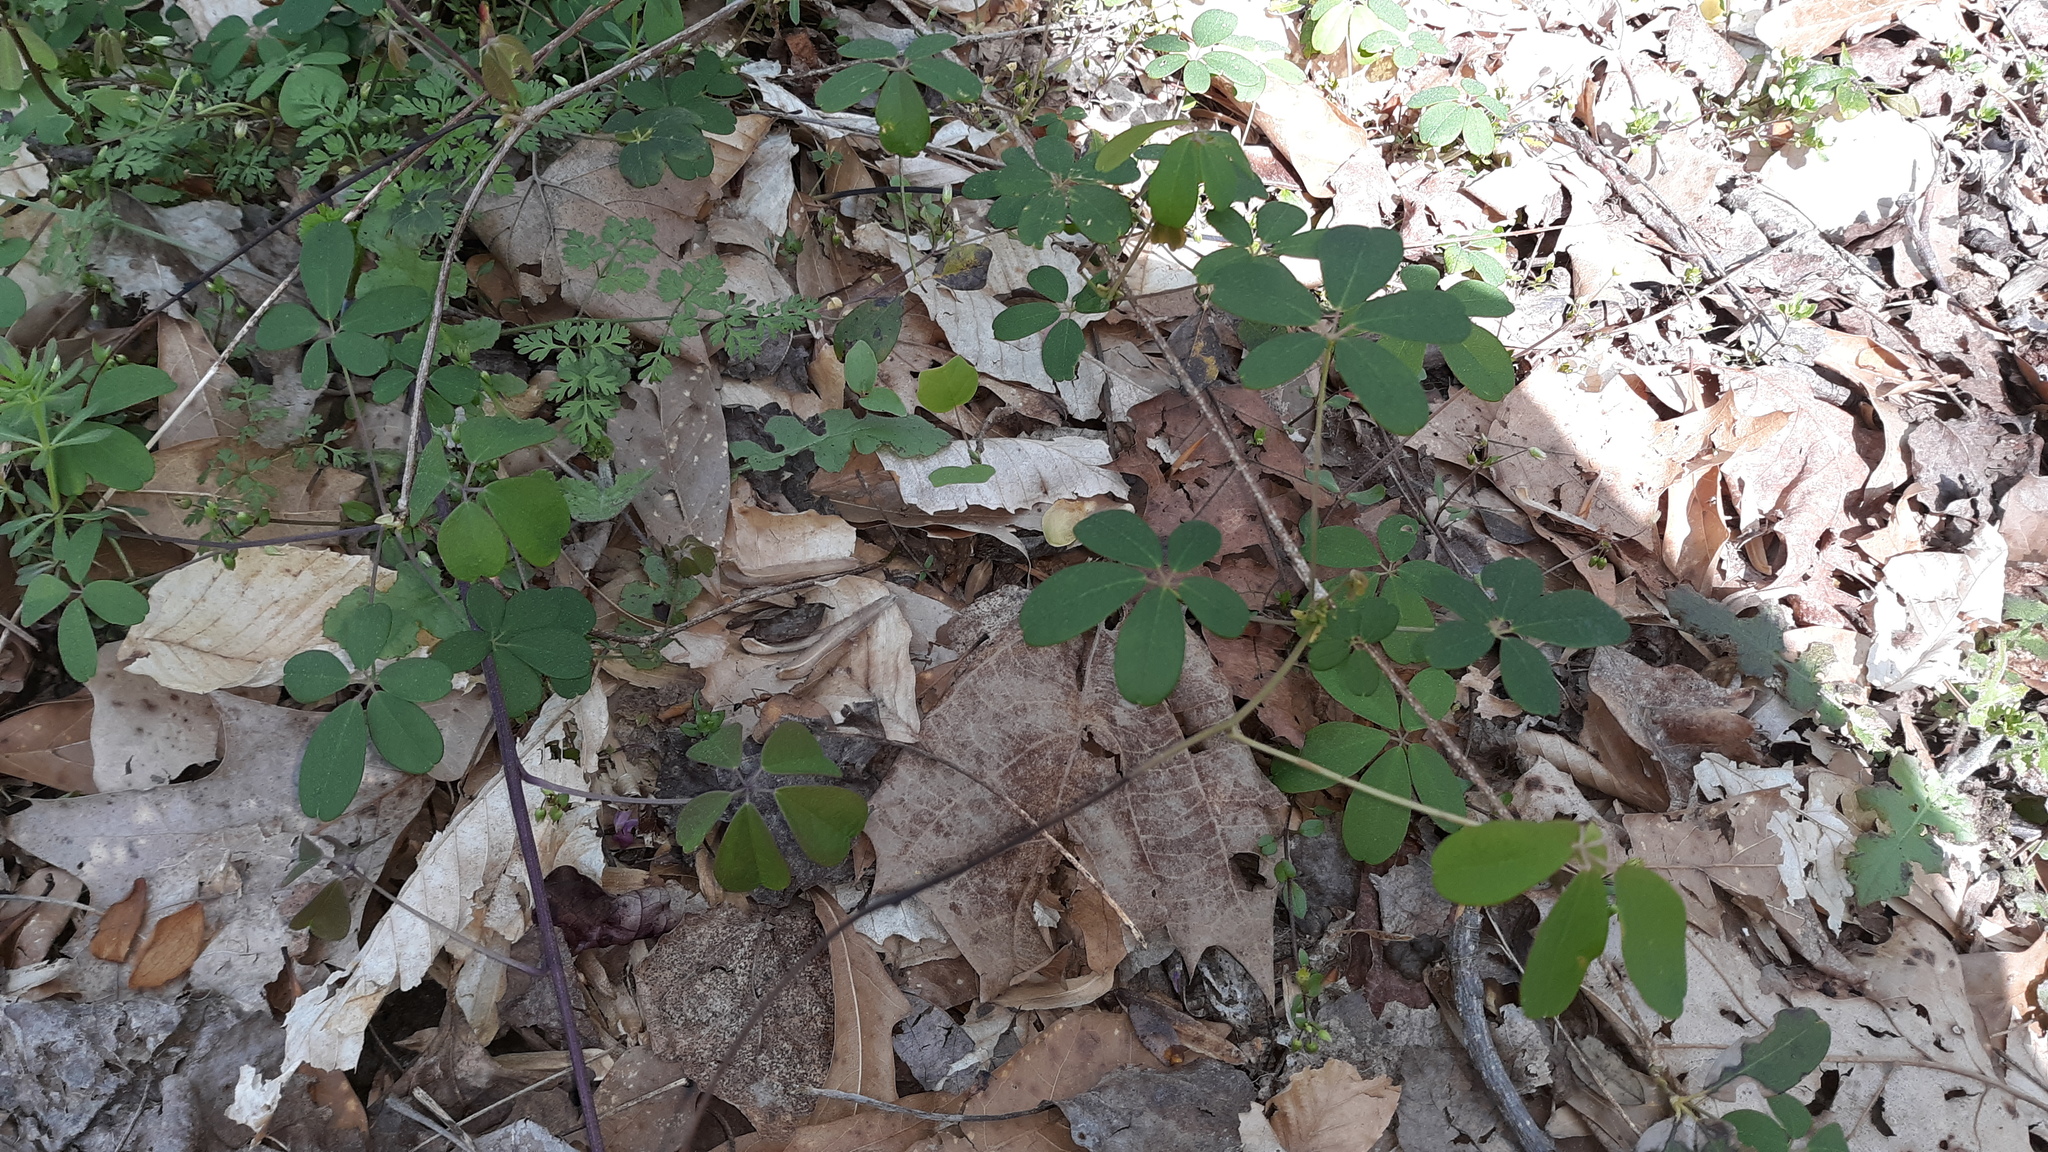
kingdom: Plantae
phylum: Tracheophyta
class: Magnoliopsida
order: Ranunculales
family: Lardizabalaceae
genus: Akebia
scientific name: Akebia quinata
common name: Five-leaf akebia
